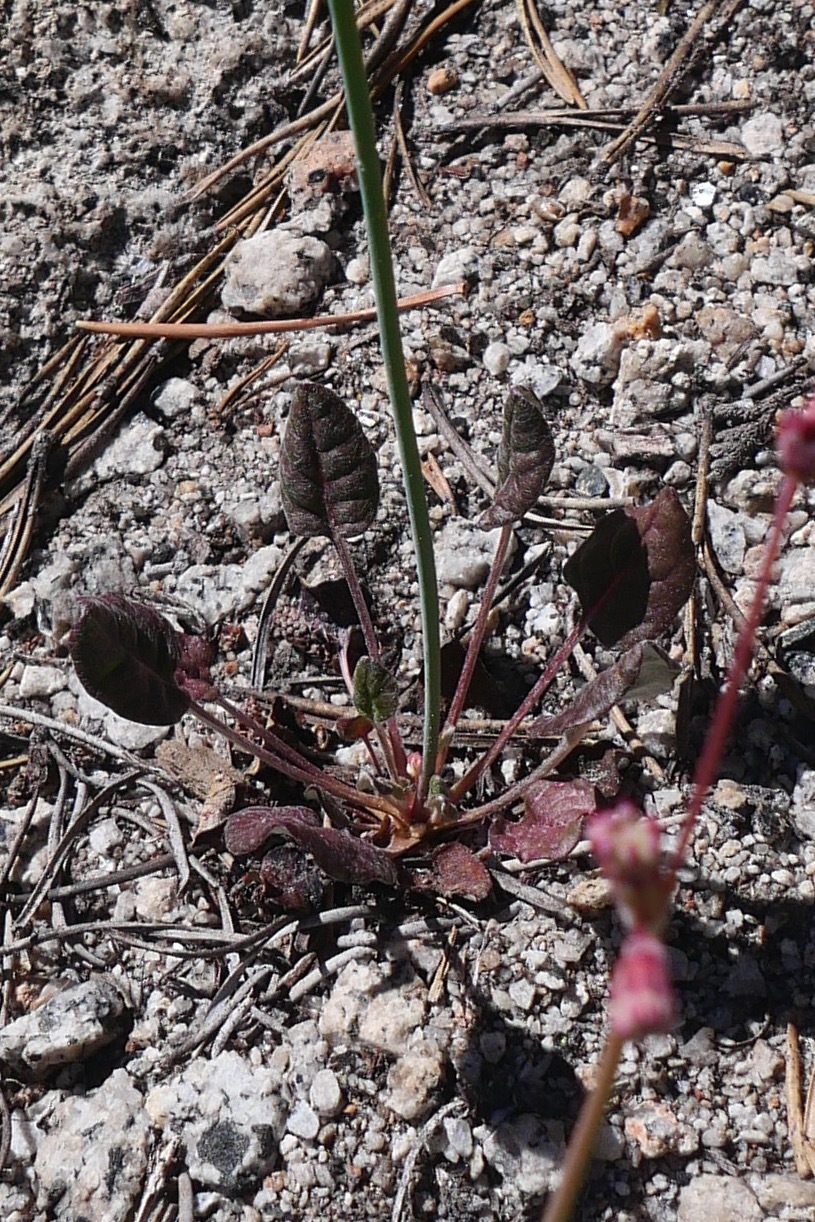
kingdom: Plantae
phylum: Tracheophyta
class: Magnoliopsida
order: Caryophyllales
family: Polygonaceae
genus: Eriogonum
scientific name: Eriogonum nudum
